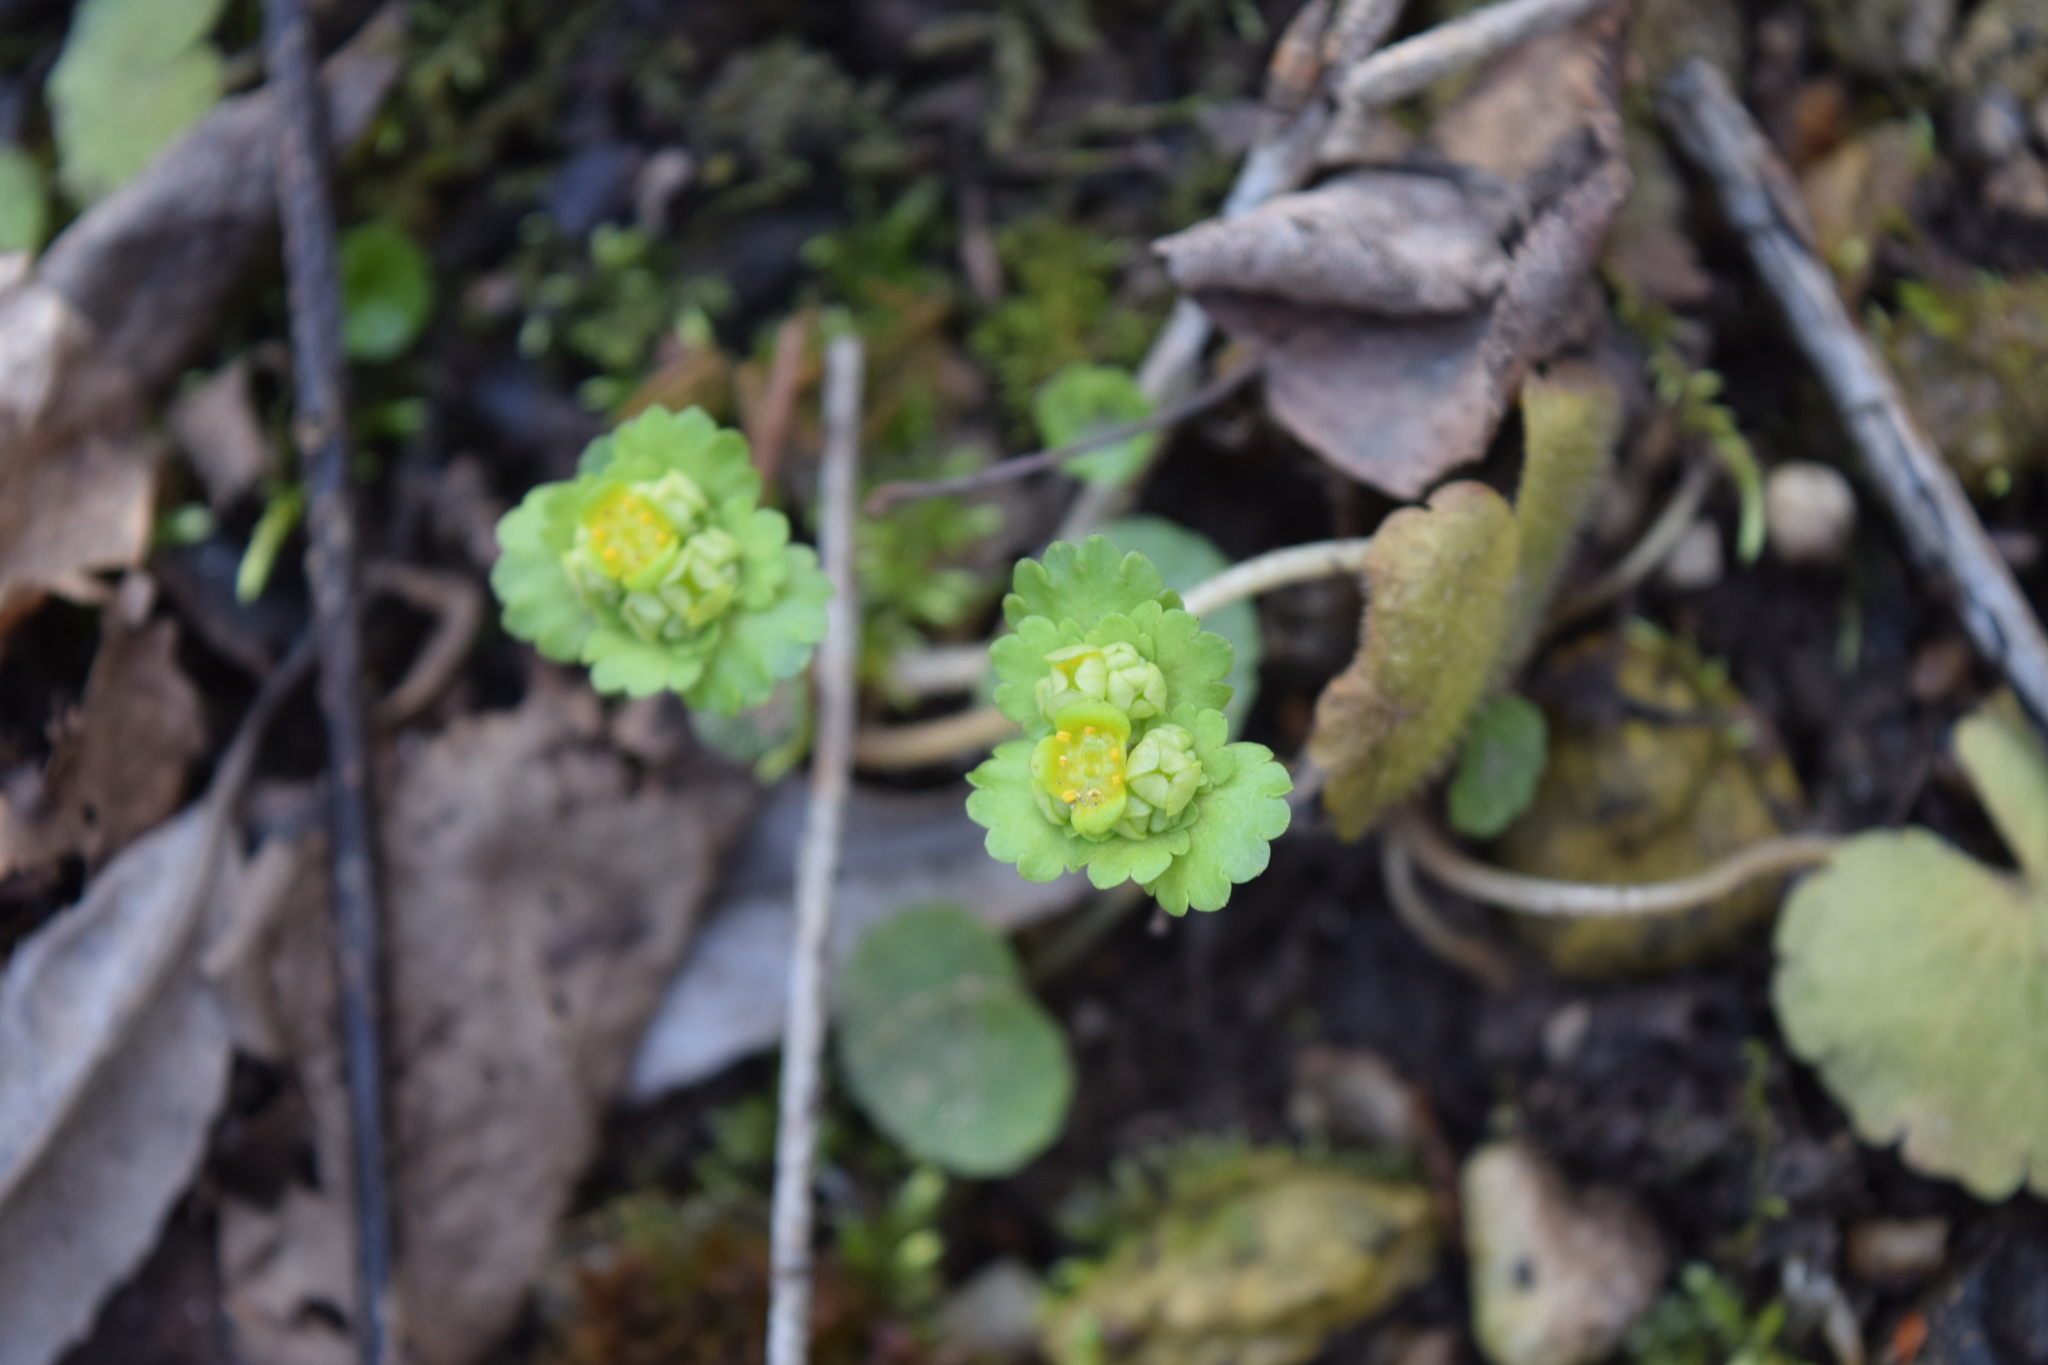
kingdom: Plantae
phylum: Tracheophyta
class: Magnoliopsida
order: Saxifragales
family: Saxifragaceae
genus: Chrysosplenium
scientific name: Chrysosplenium alternifolium
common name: Alternate-leaved golden-saxifrage
